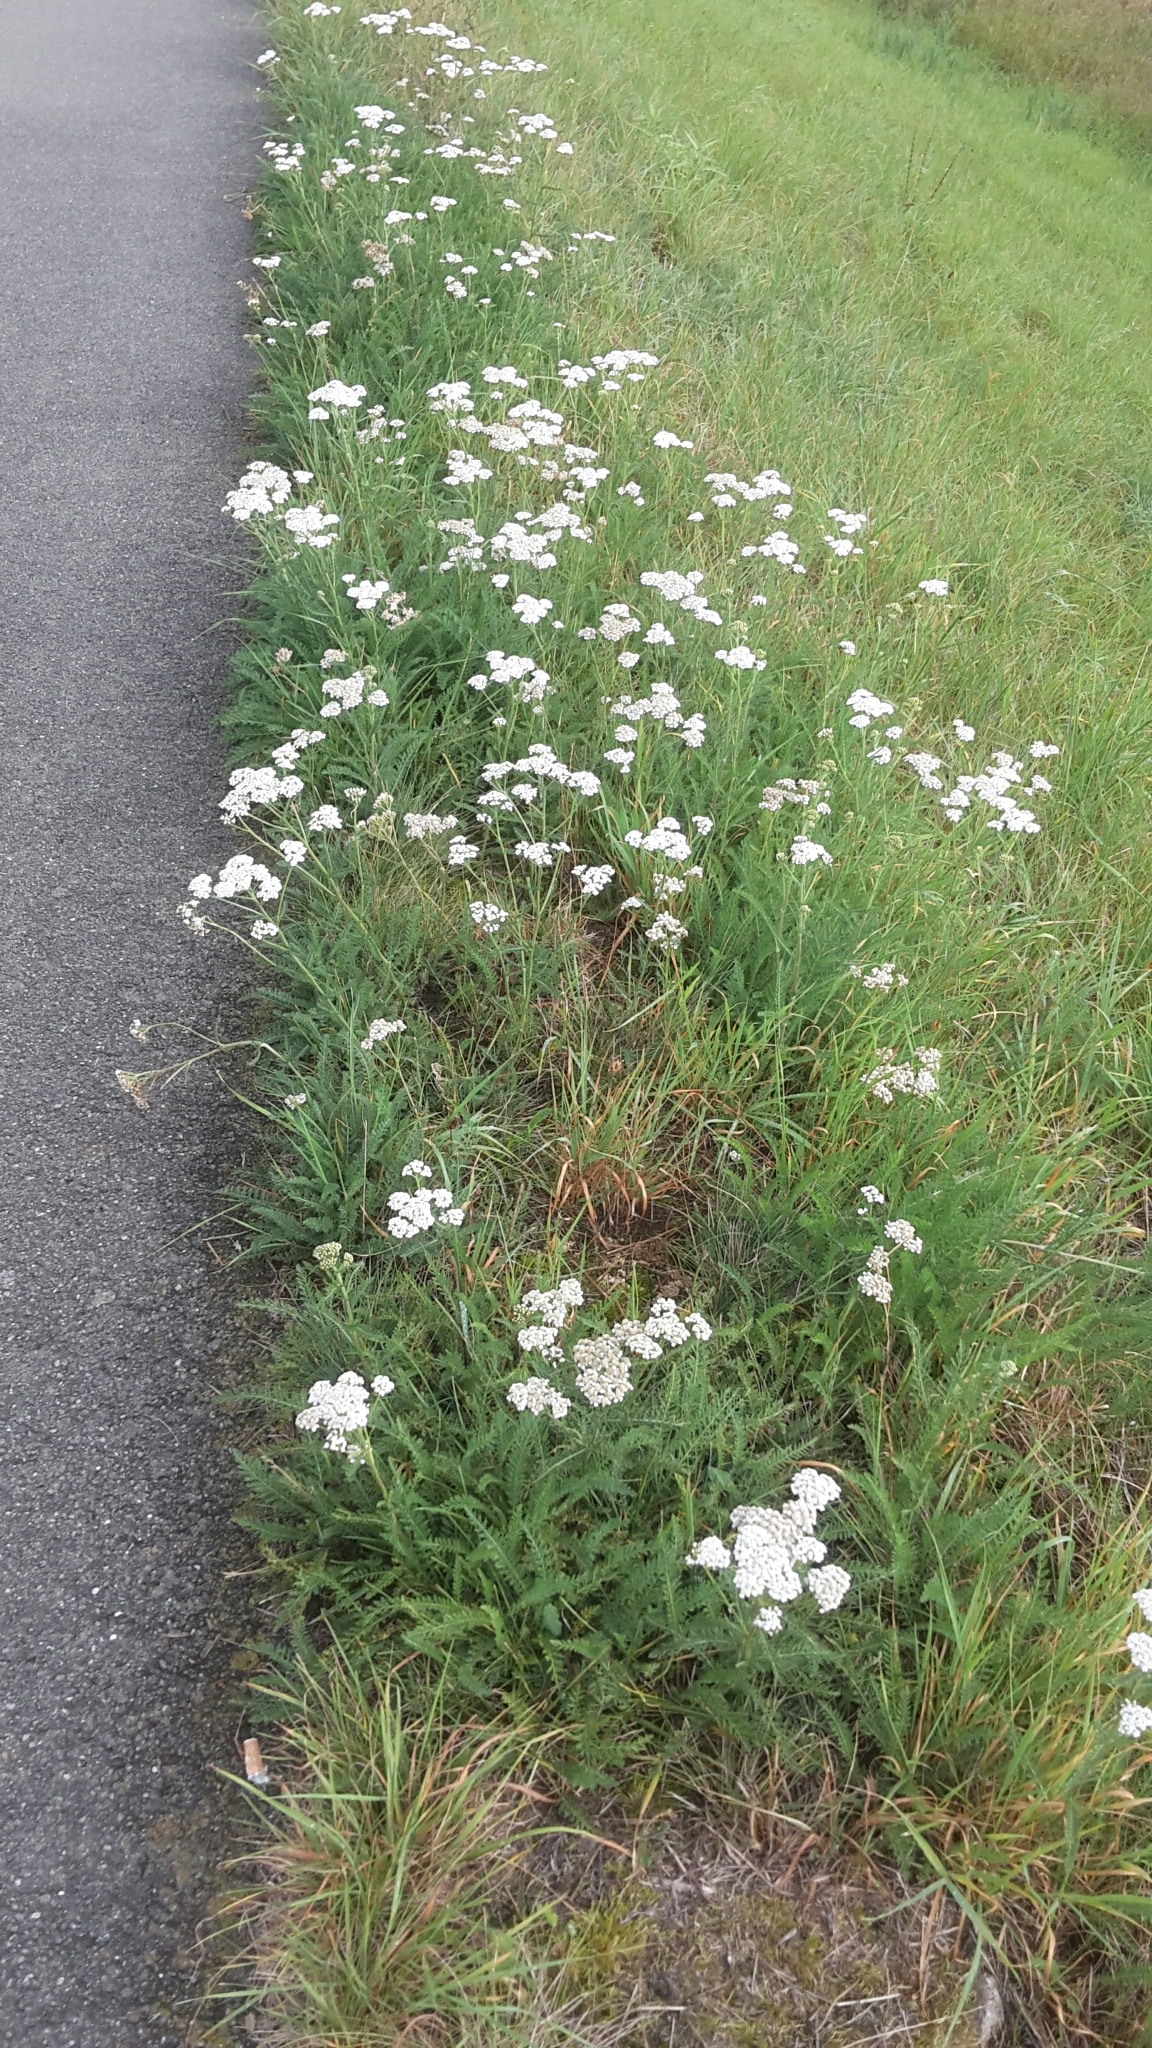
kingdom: Plantae
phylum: Tracheophyta
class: Magnoliopsida
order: Asterales
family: Asteraceae
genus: Achillea
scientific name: Achillea millefolium
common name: Yarrow
